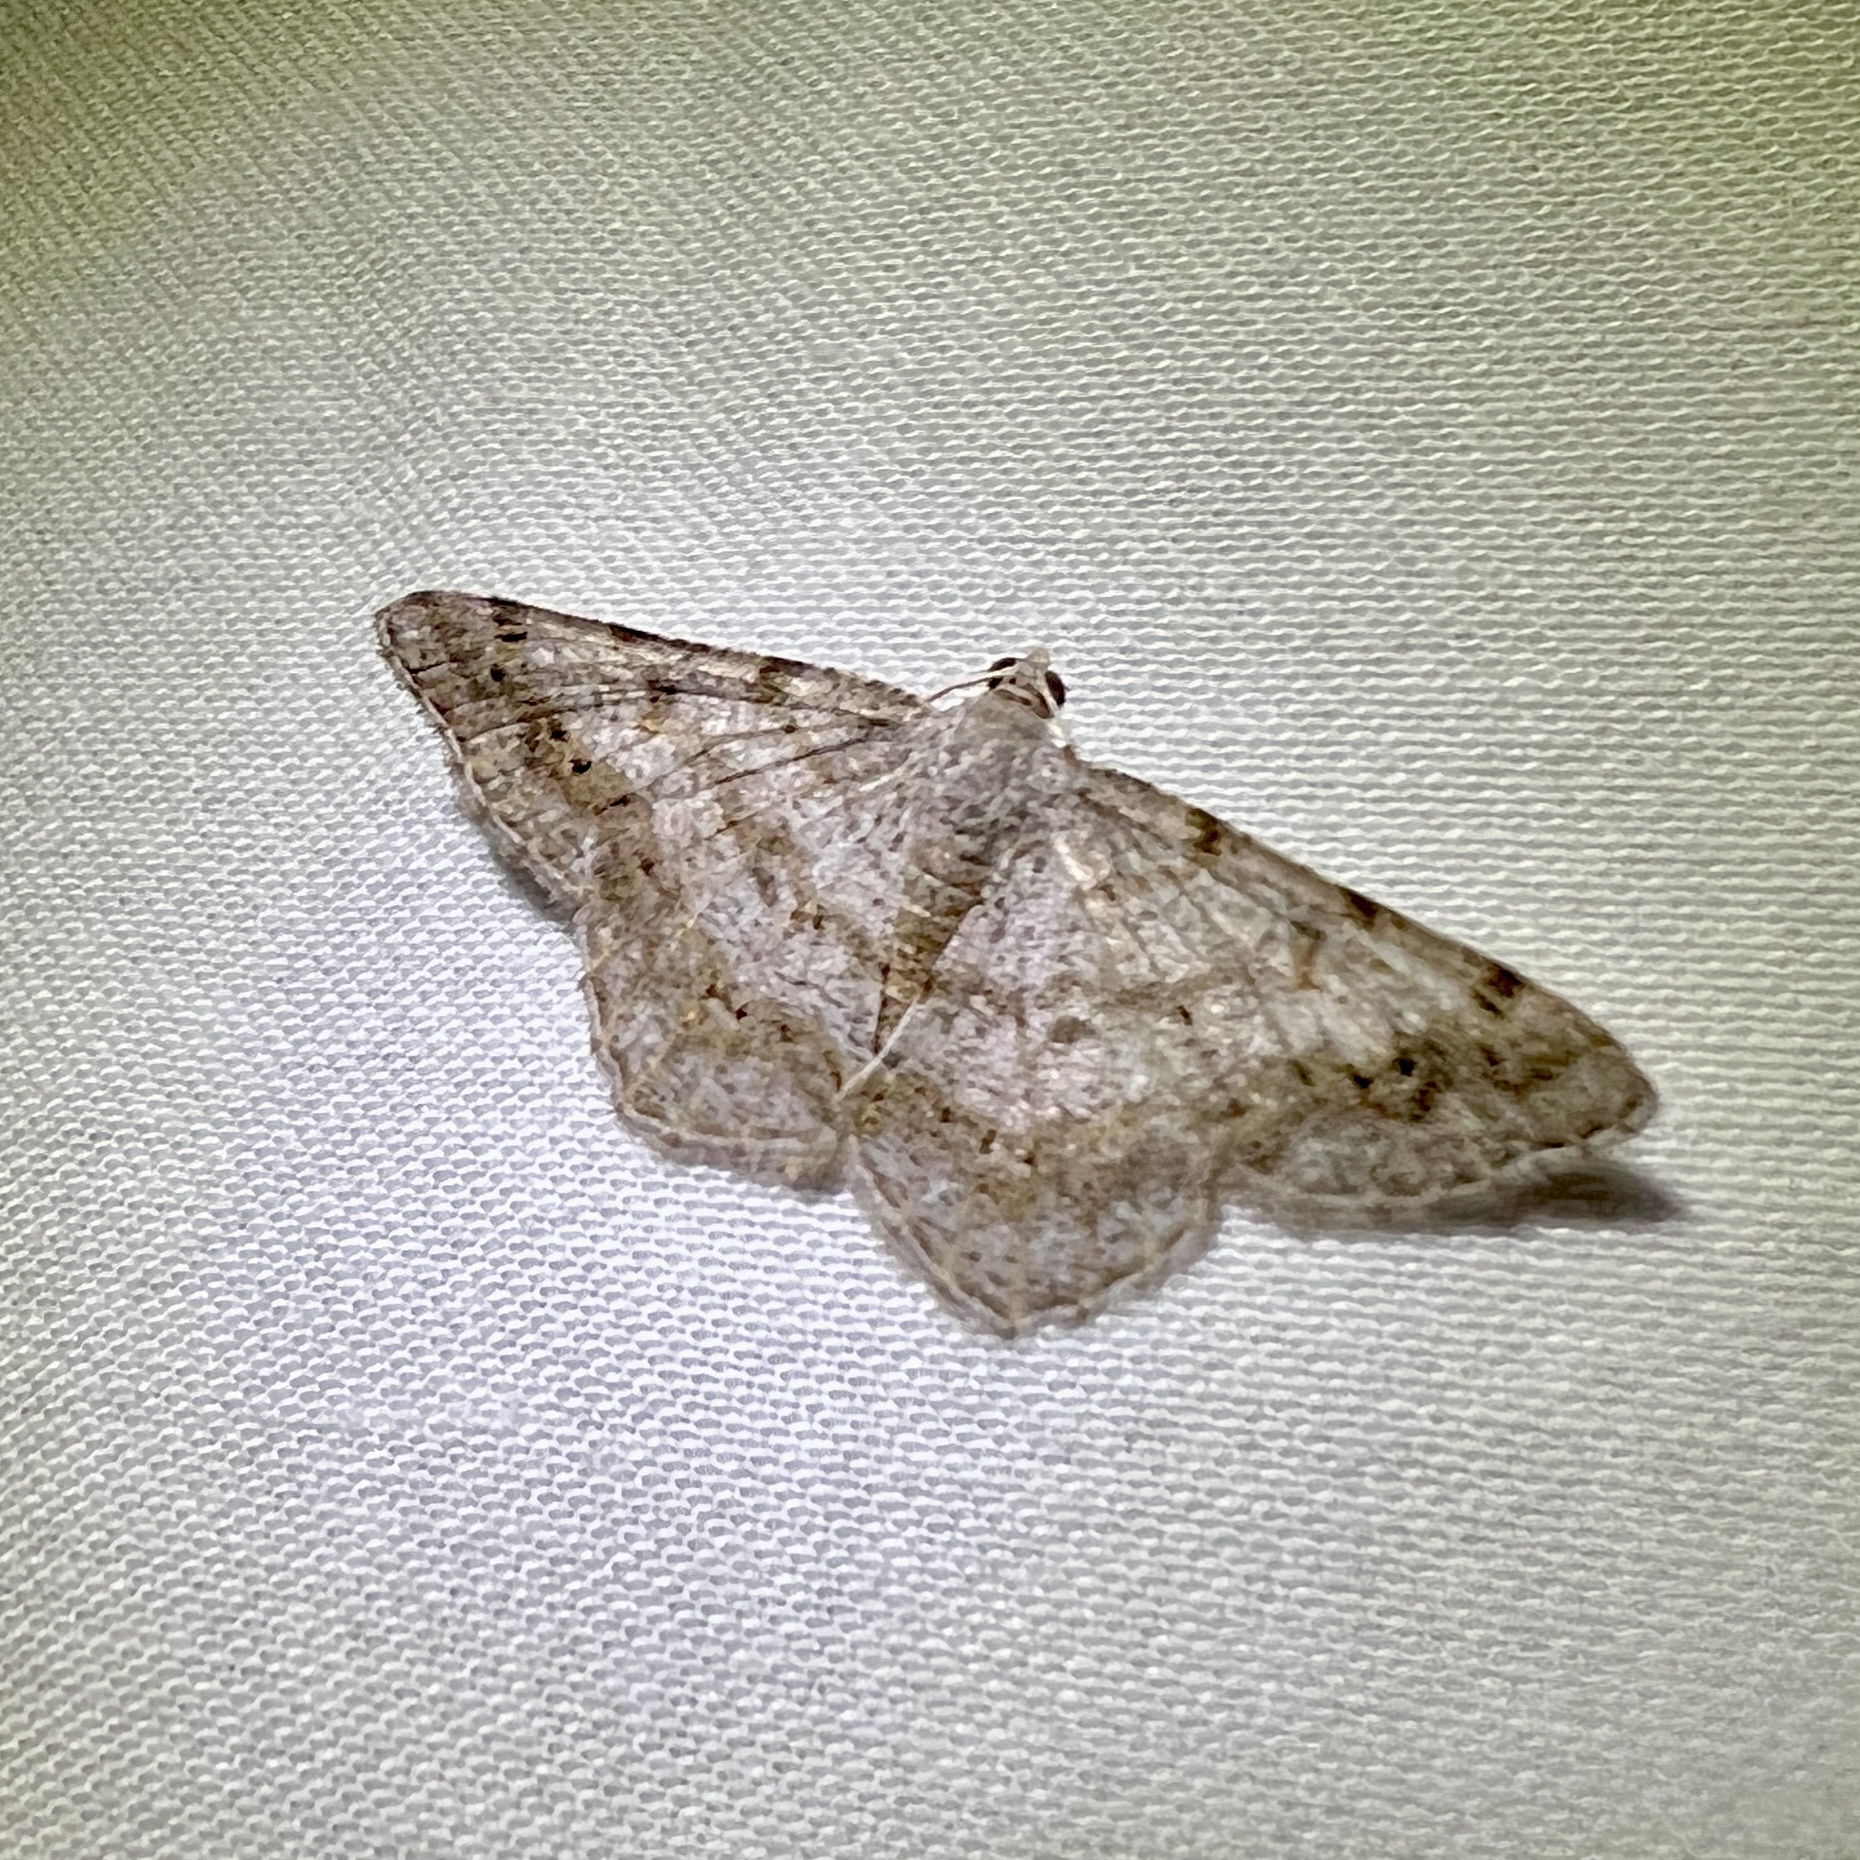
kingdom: Animalia
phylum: Arthropoda
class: Insecta
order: Lepidoptera
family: Geometridae
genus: Digrammia
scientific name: Digrammia ocellinata
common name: Faint-spotted angle
